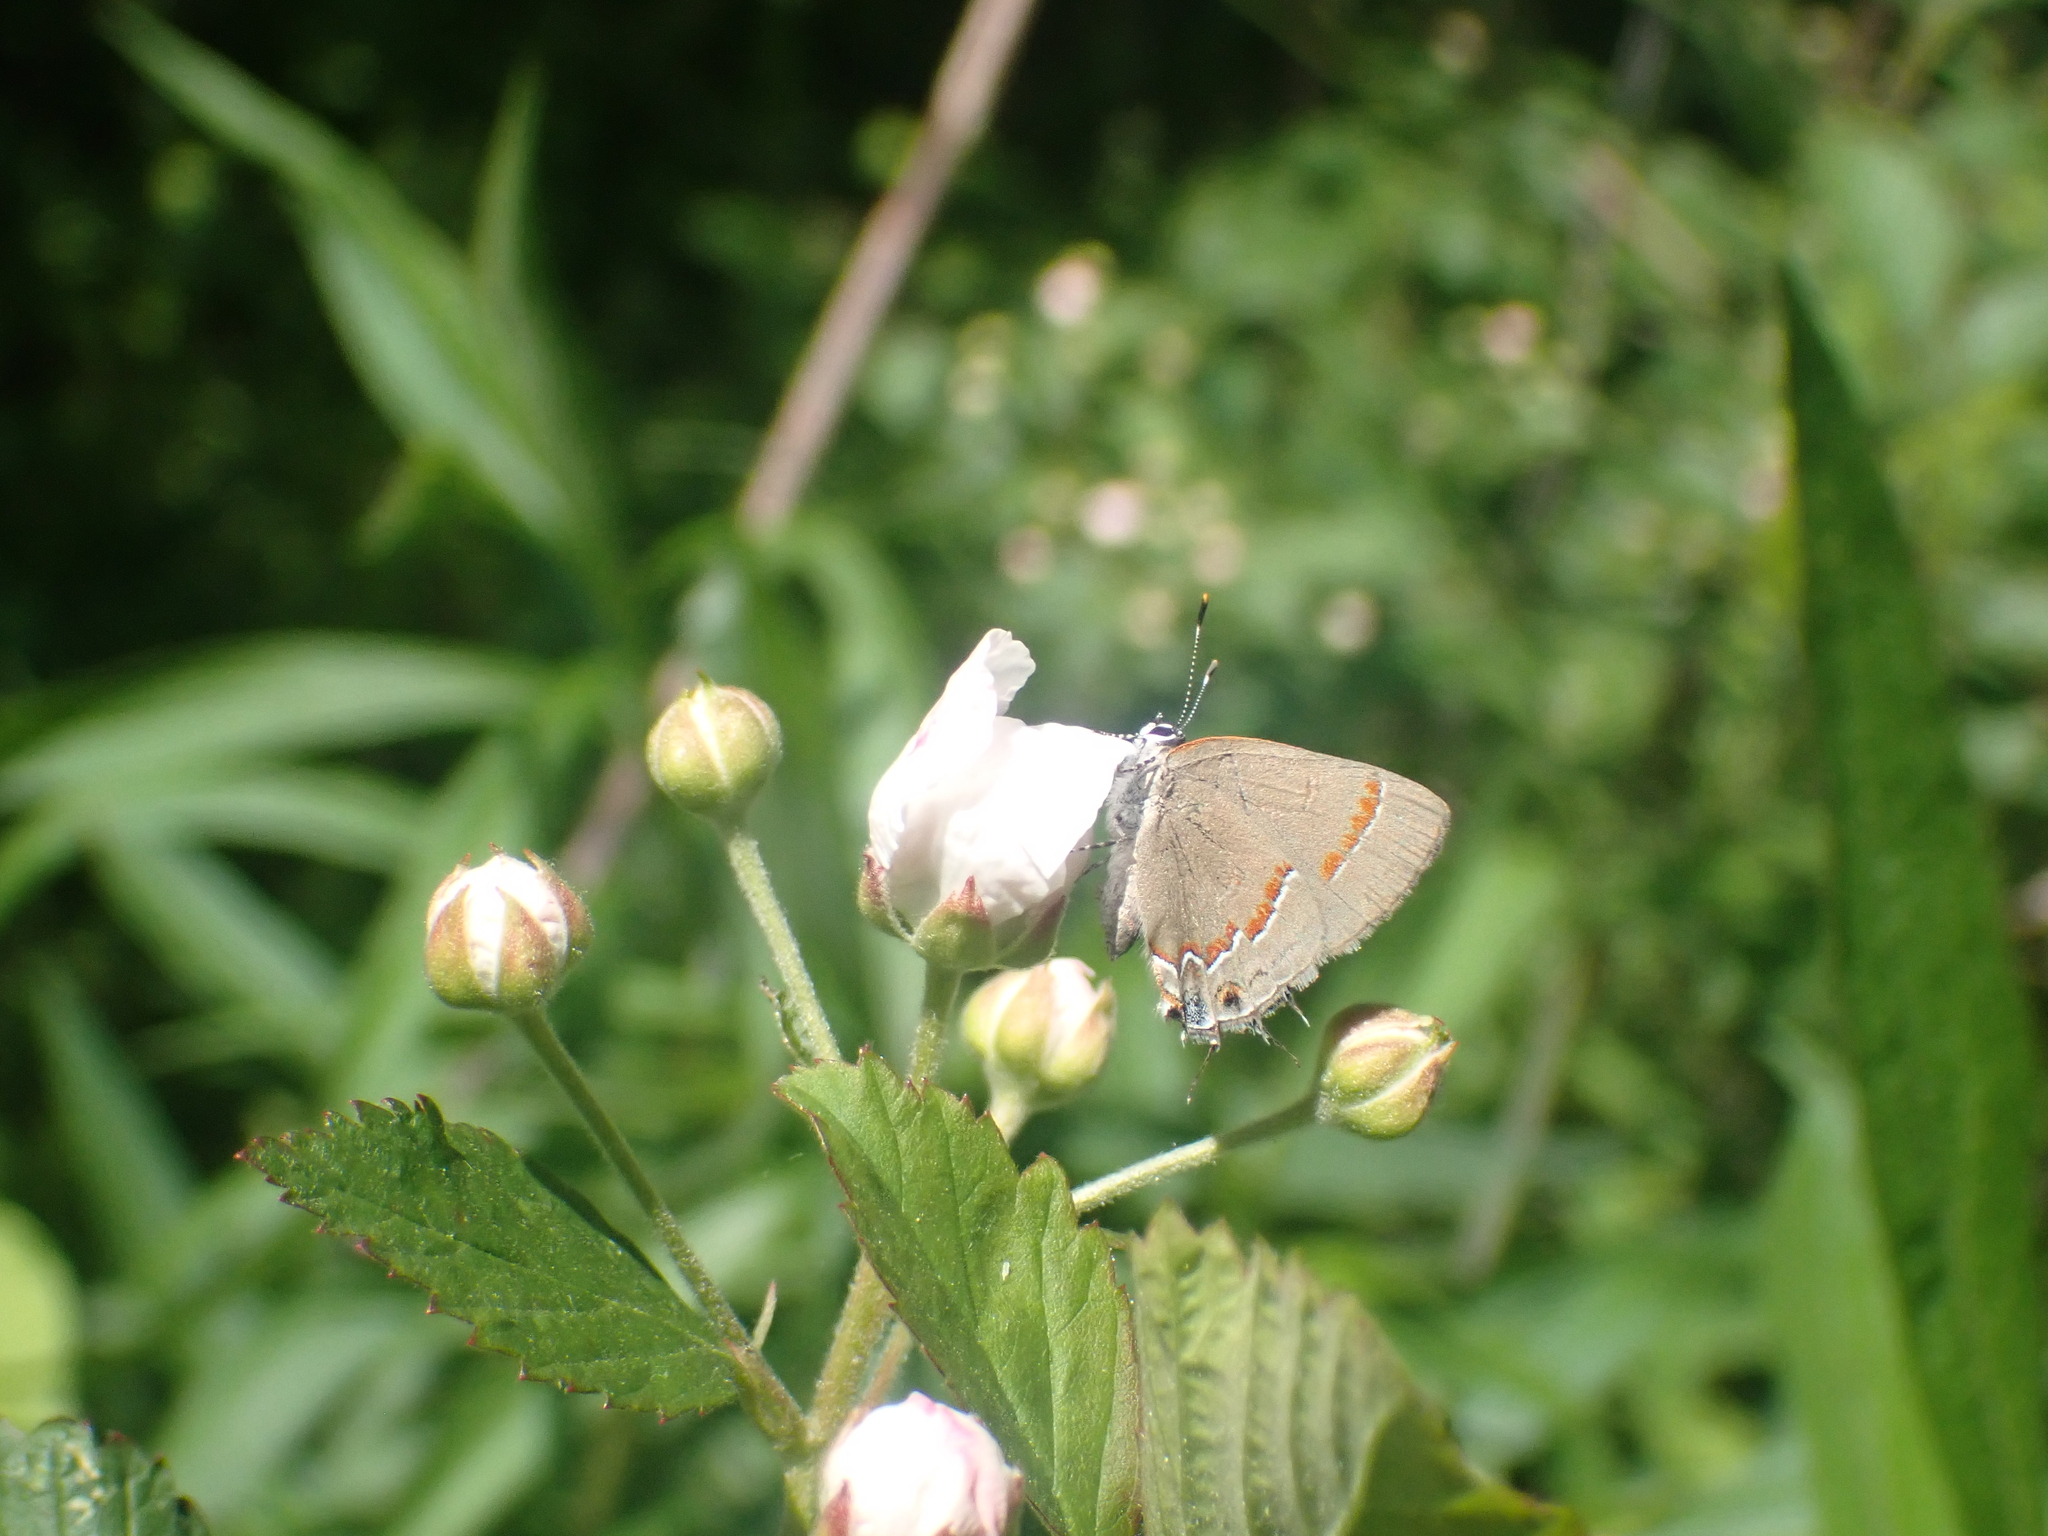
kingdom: Animalia
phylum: Arthropoda
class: Insecta
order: Lepidoptera
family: Lycaenidae
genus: Calycopis
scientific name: Calycopis cecrops
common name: Red-banded hairstreak
